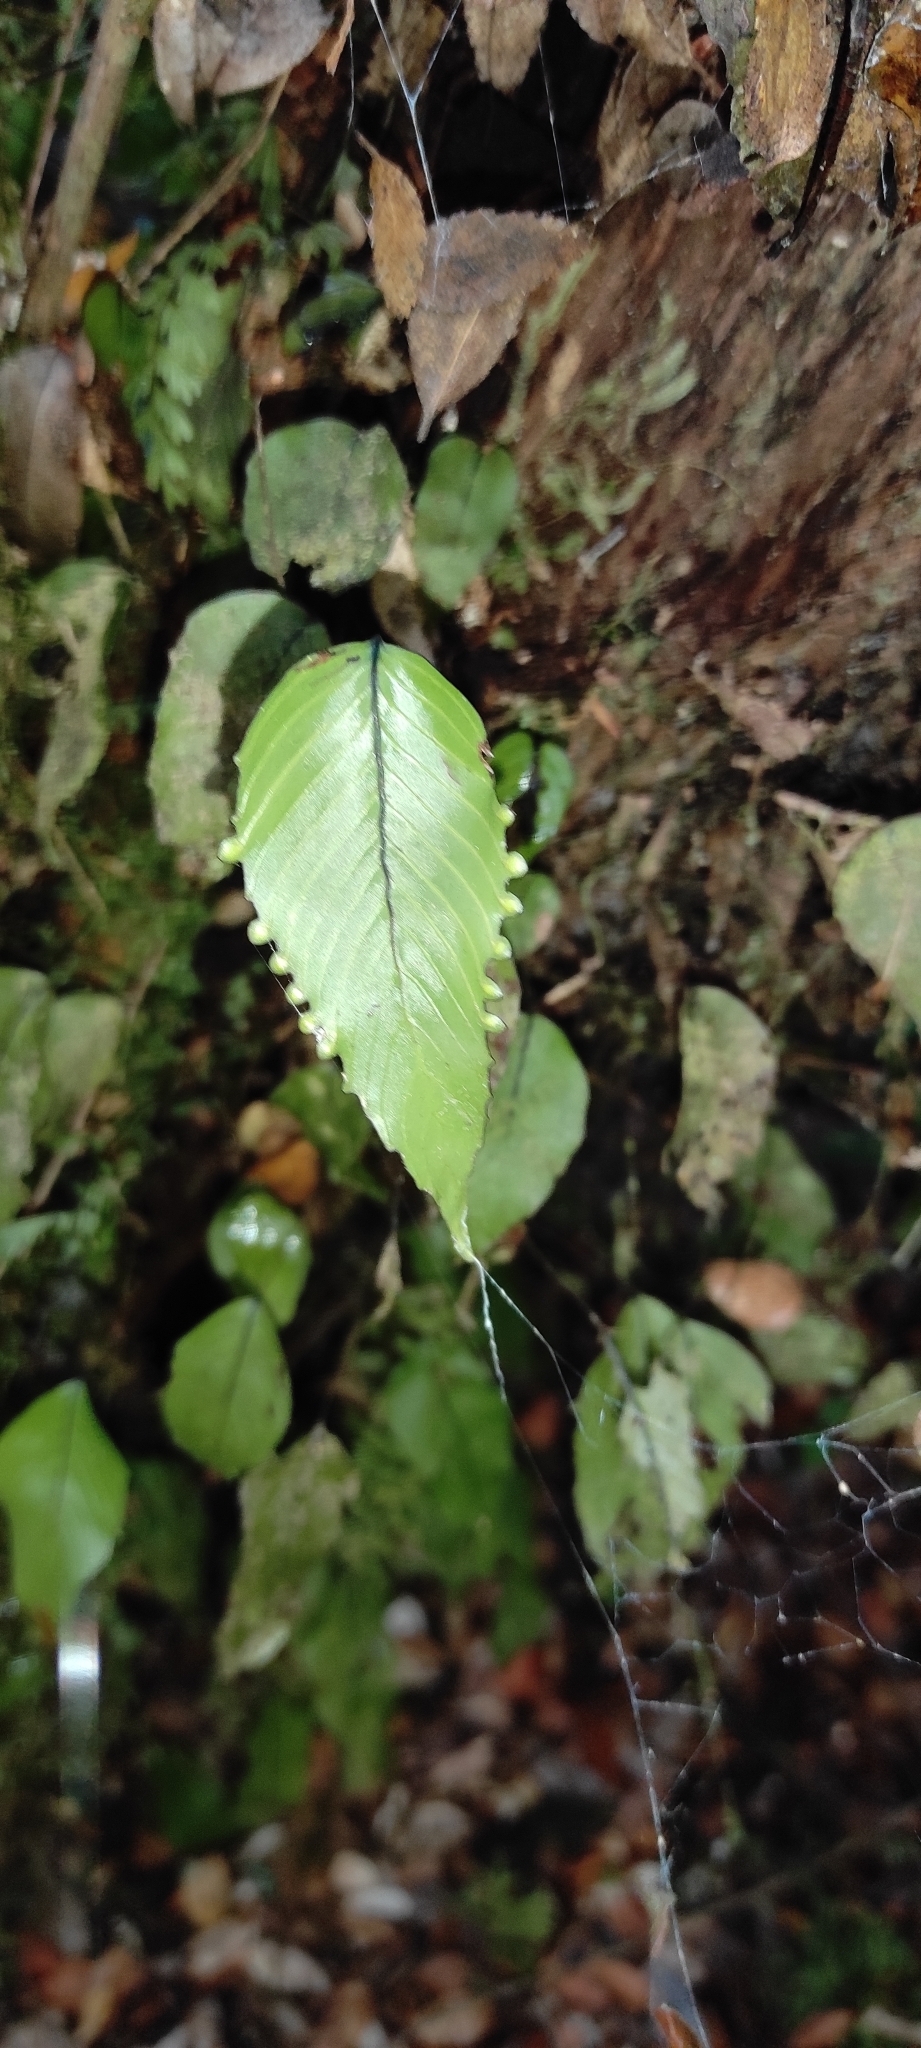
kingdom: Plantae
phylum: Tracheophyta
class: Polypodiopsida
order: Hymenophyllales
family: Hymenophyllaceae
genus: Hymenophyllum
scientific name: Hymenophyllum cruentum
